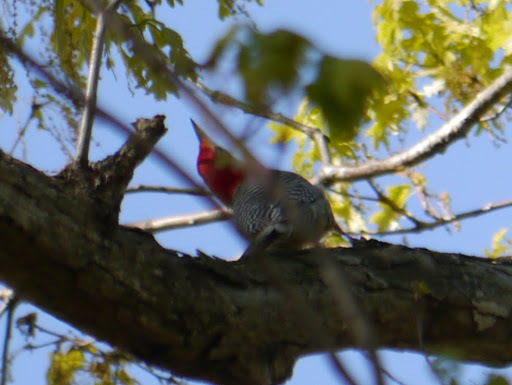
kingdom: Animalia
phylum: Chordata
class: Aves
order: Piciformes
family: Picidae
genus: Melanerpes
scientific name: Melanerpes carolinus
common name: Red-bellied woodpecker
